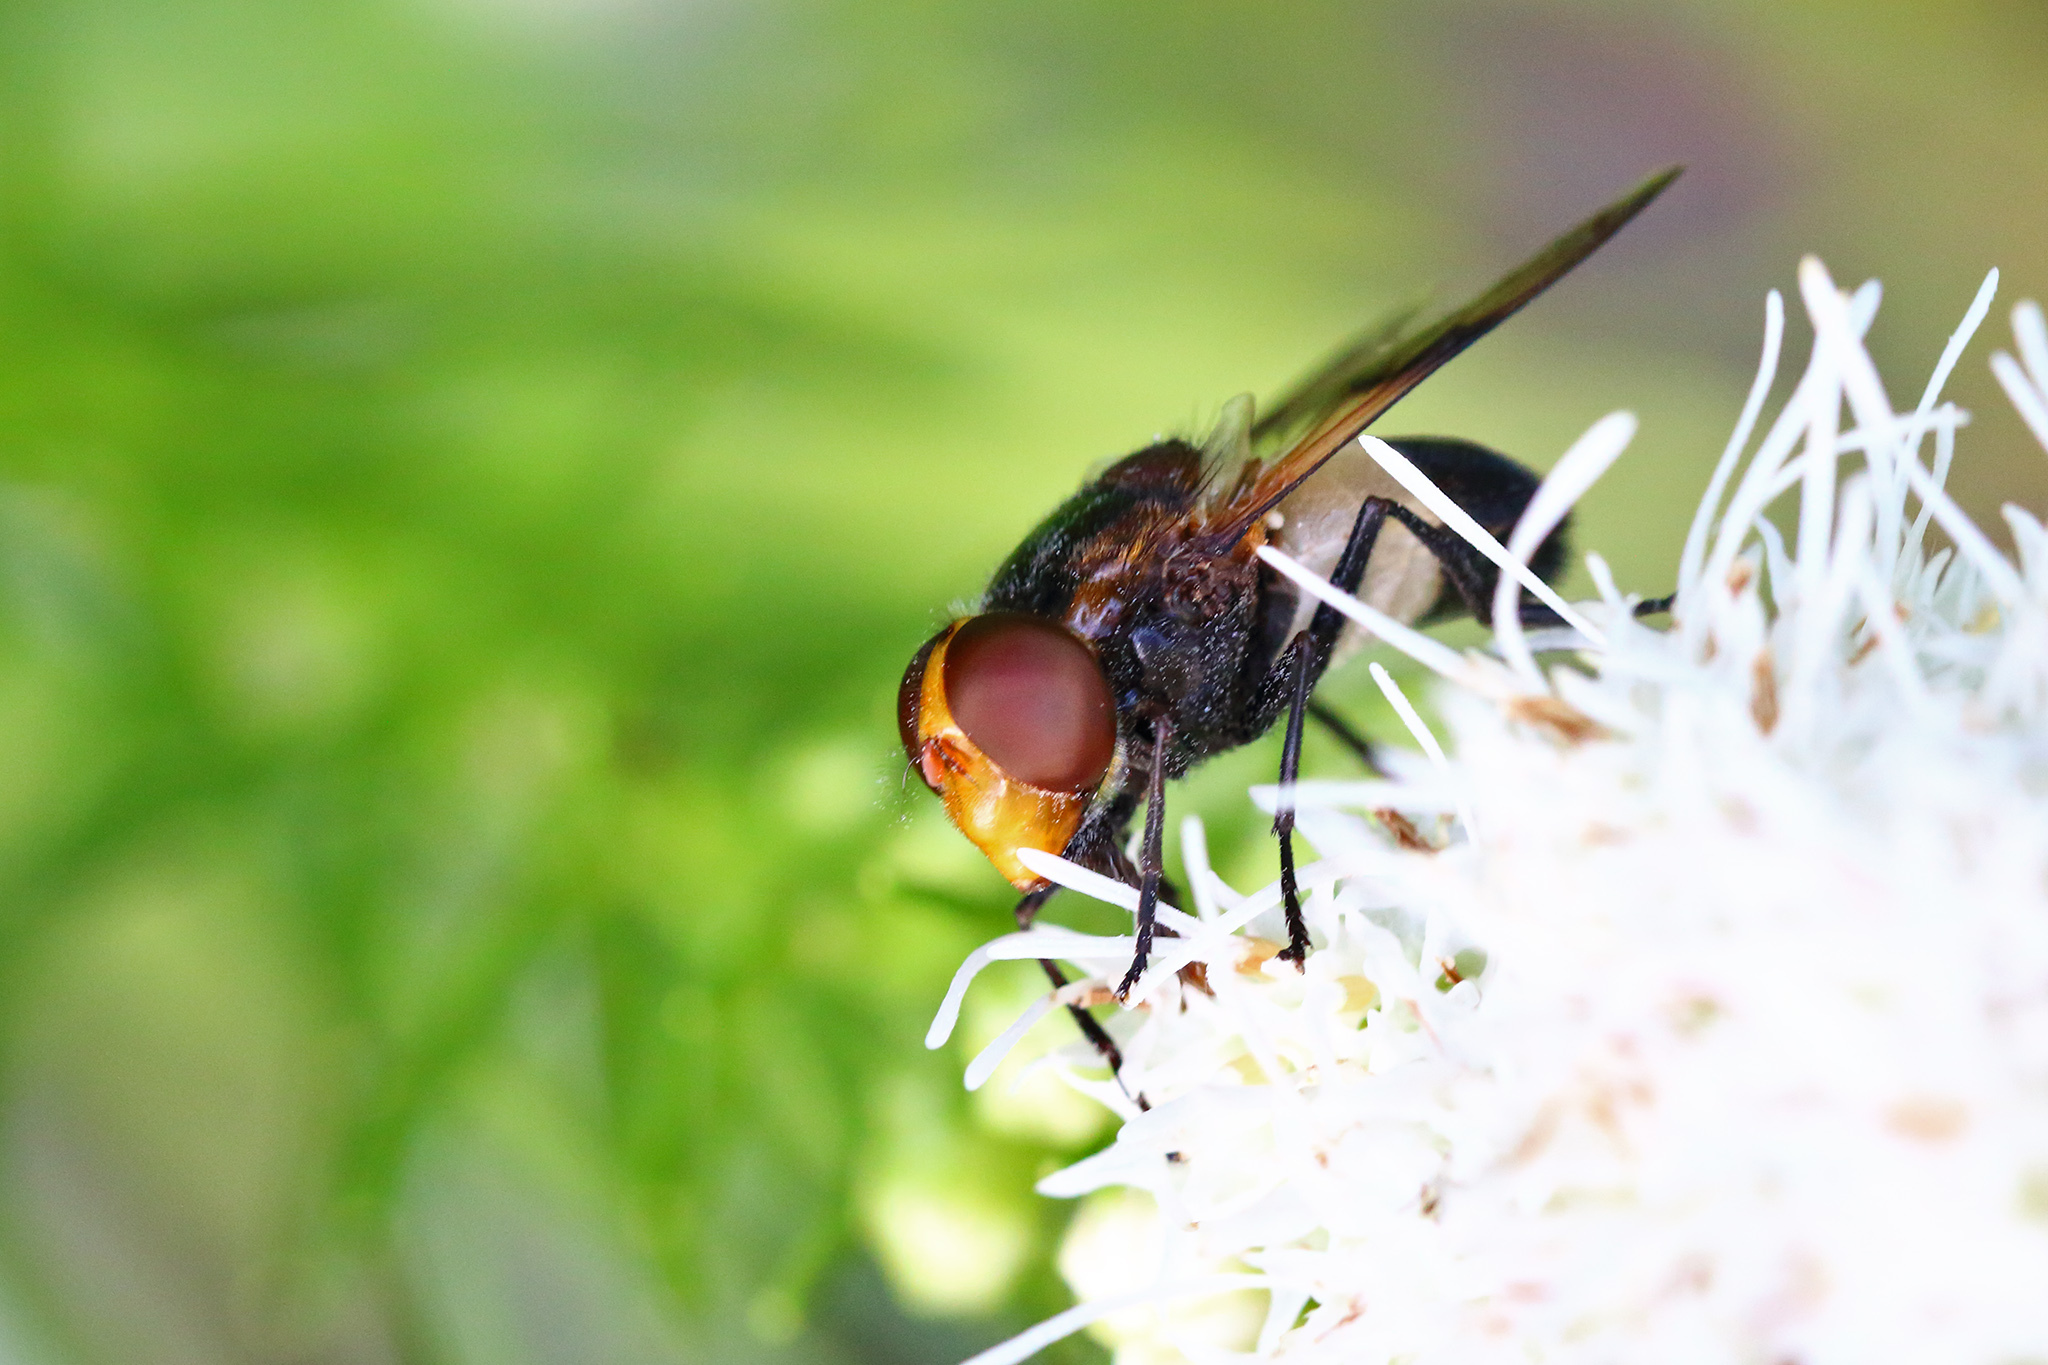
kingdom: Animalia
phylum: Arthropoda
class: Insecta
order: Diptera
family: Syrphidae
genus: Volucella
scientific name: Volucella pellucens
